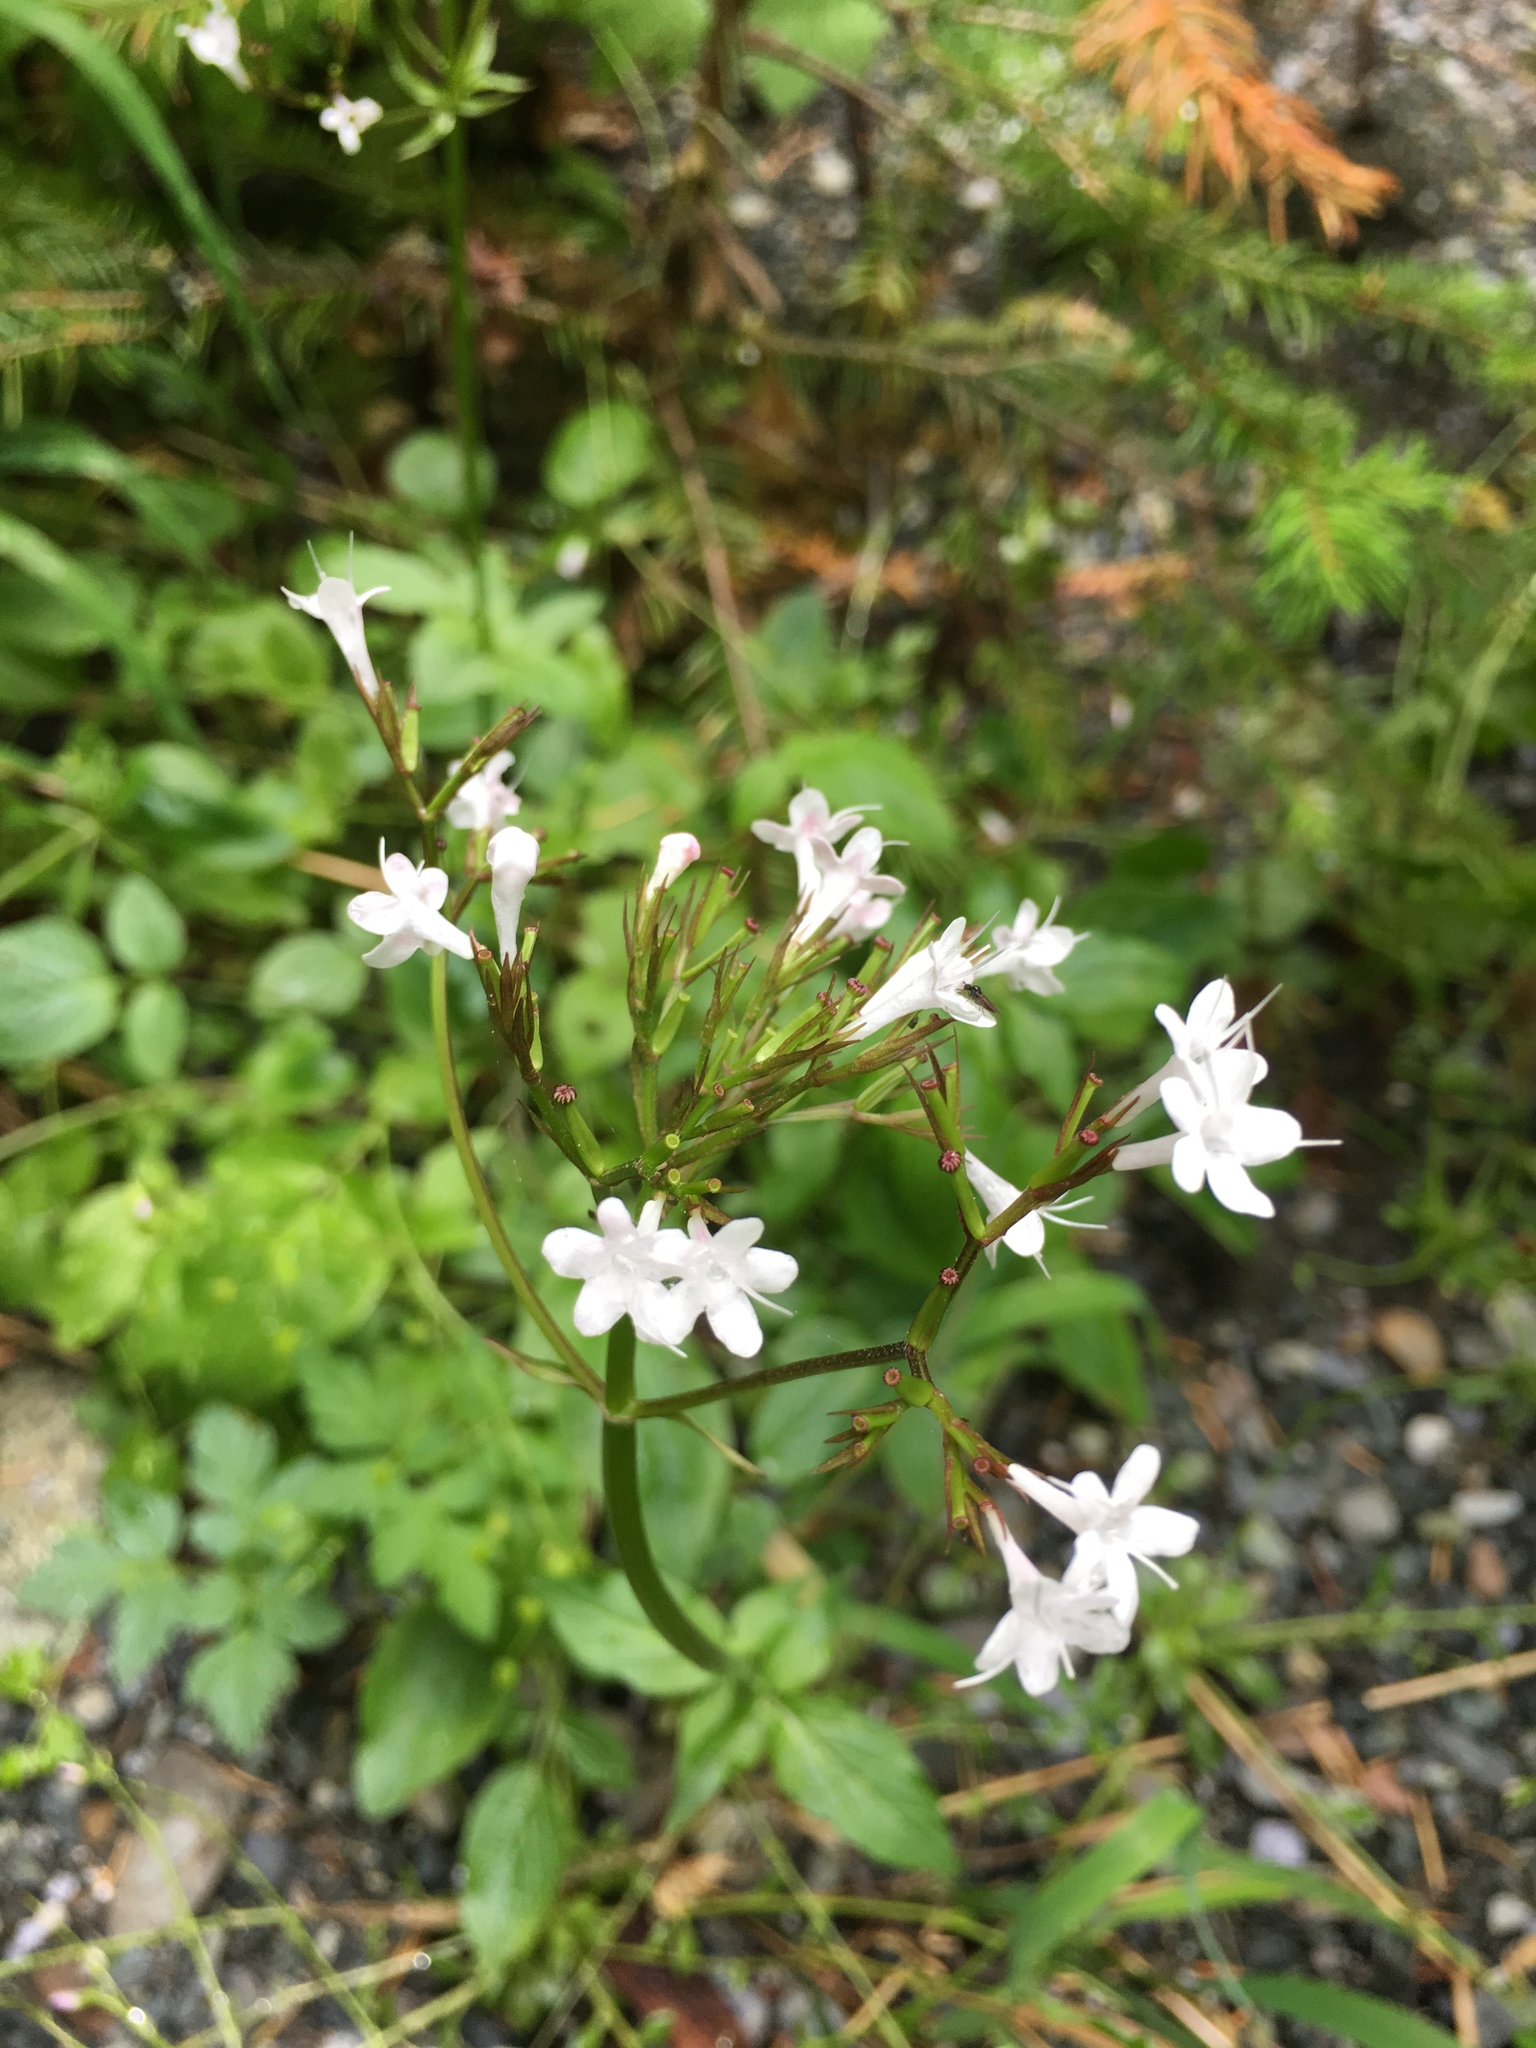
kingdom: Plantae
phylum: Tracheophyta
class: Magnoliopsida
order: Dipsacales
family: Caprifoliaceae
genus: Valeriana
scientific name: Valeriana sitchensis
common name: Pacific valerian
